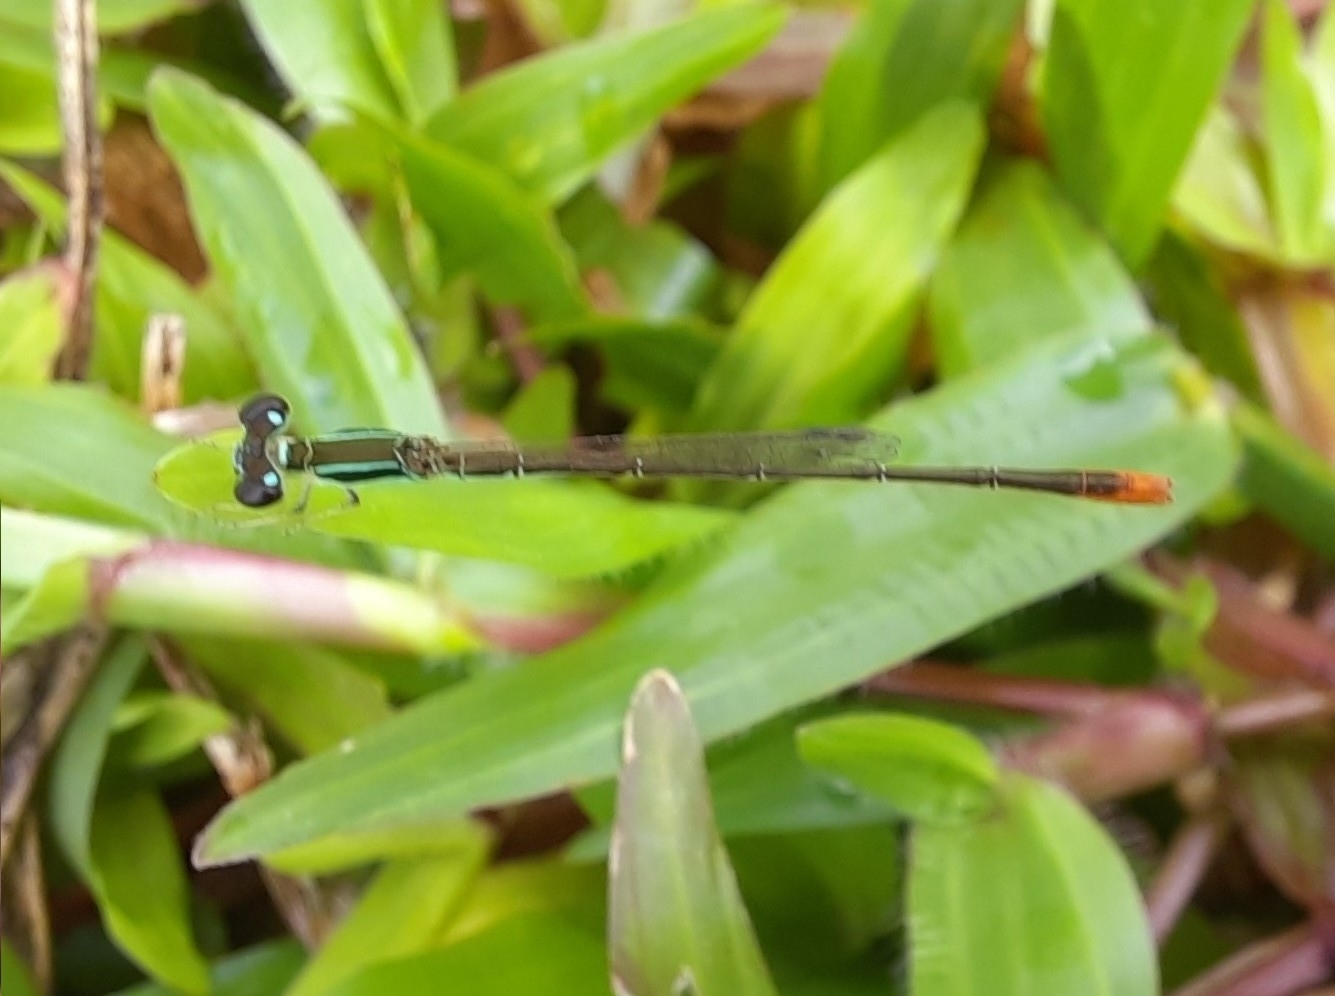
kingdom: Animalia
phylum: Arthropoda
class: Insecta
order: Odonata
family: Coenagrionidae
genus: Agriocnemis
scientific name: Agriocnemis pygmaea
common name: Pygmy wisp
